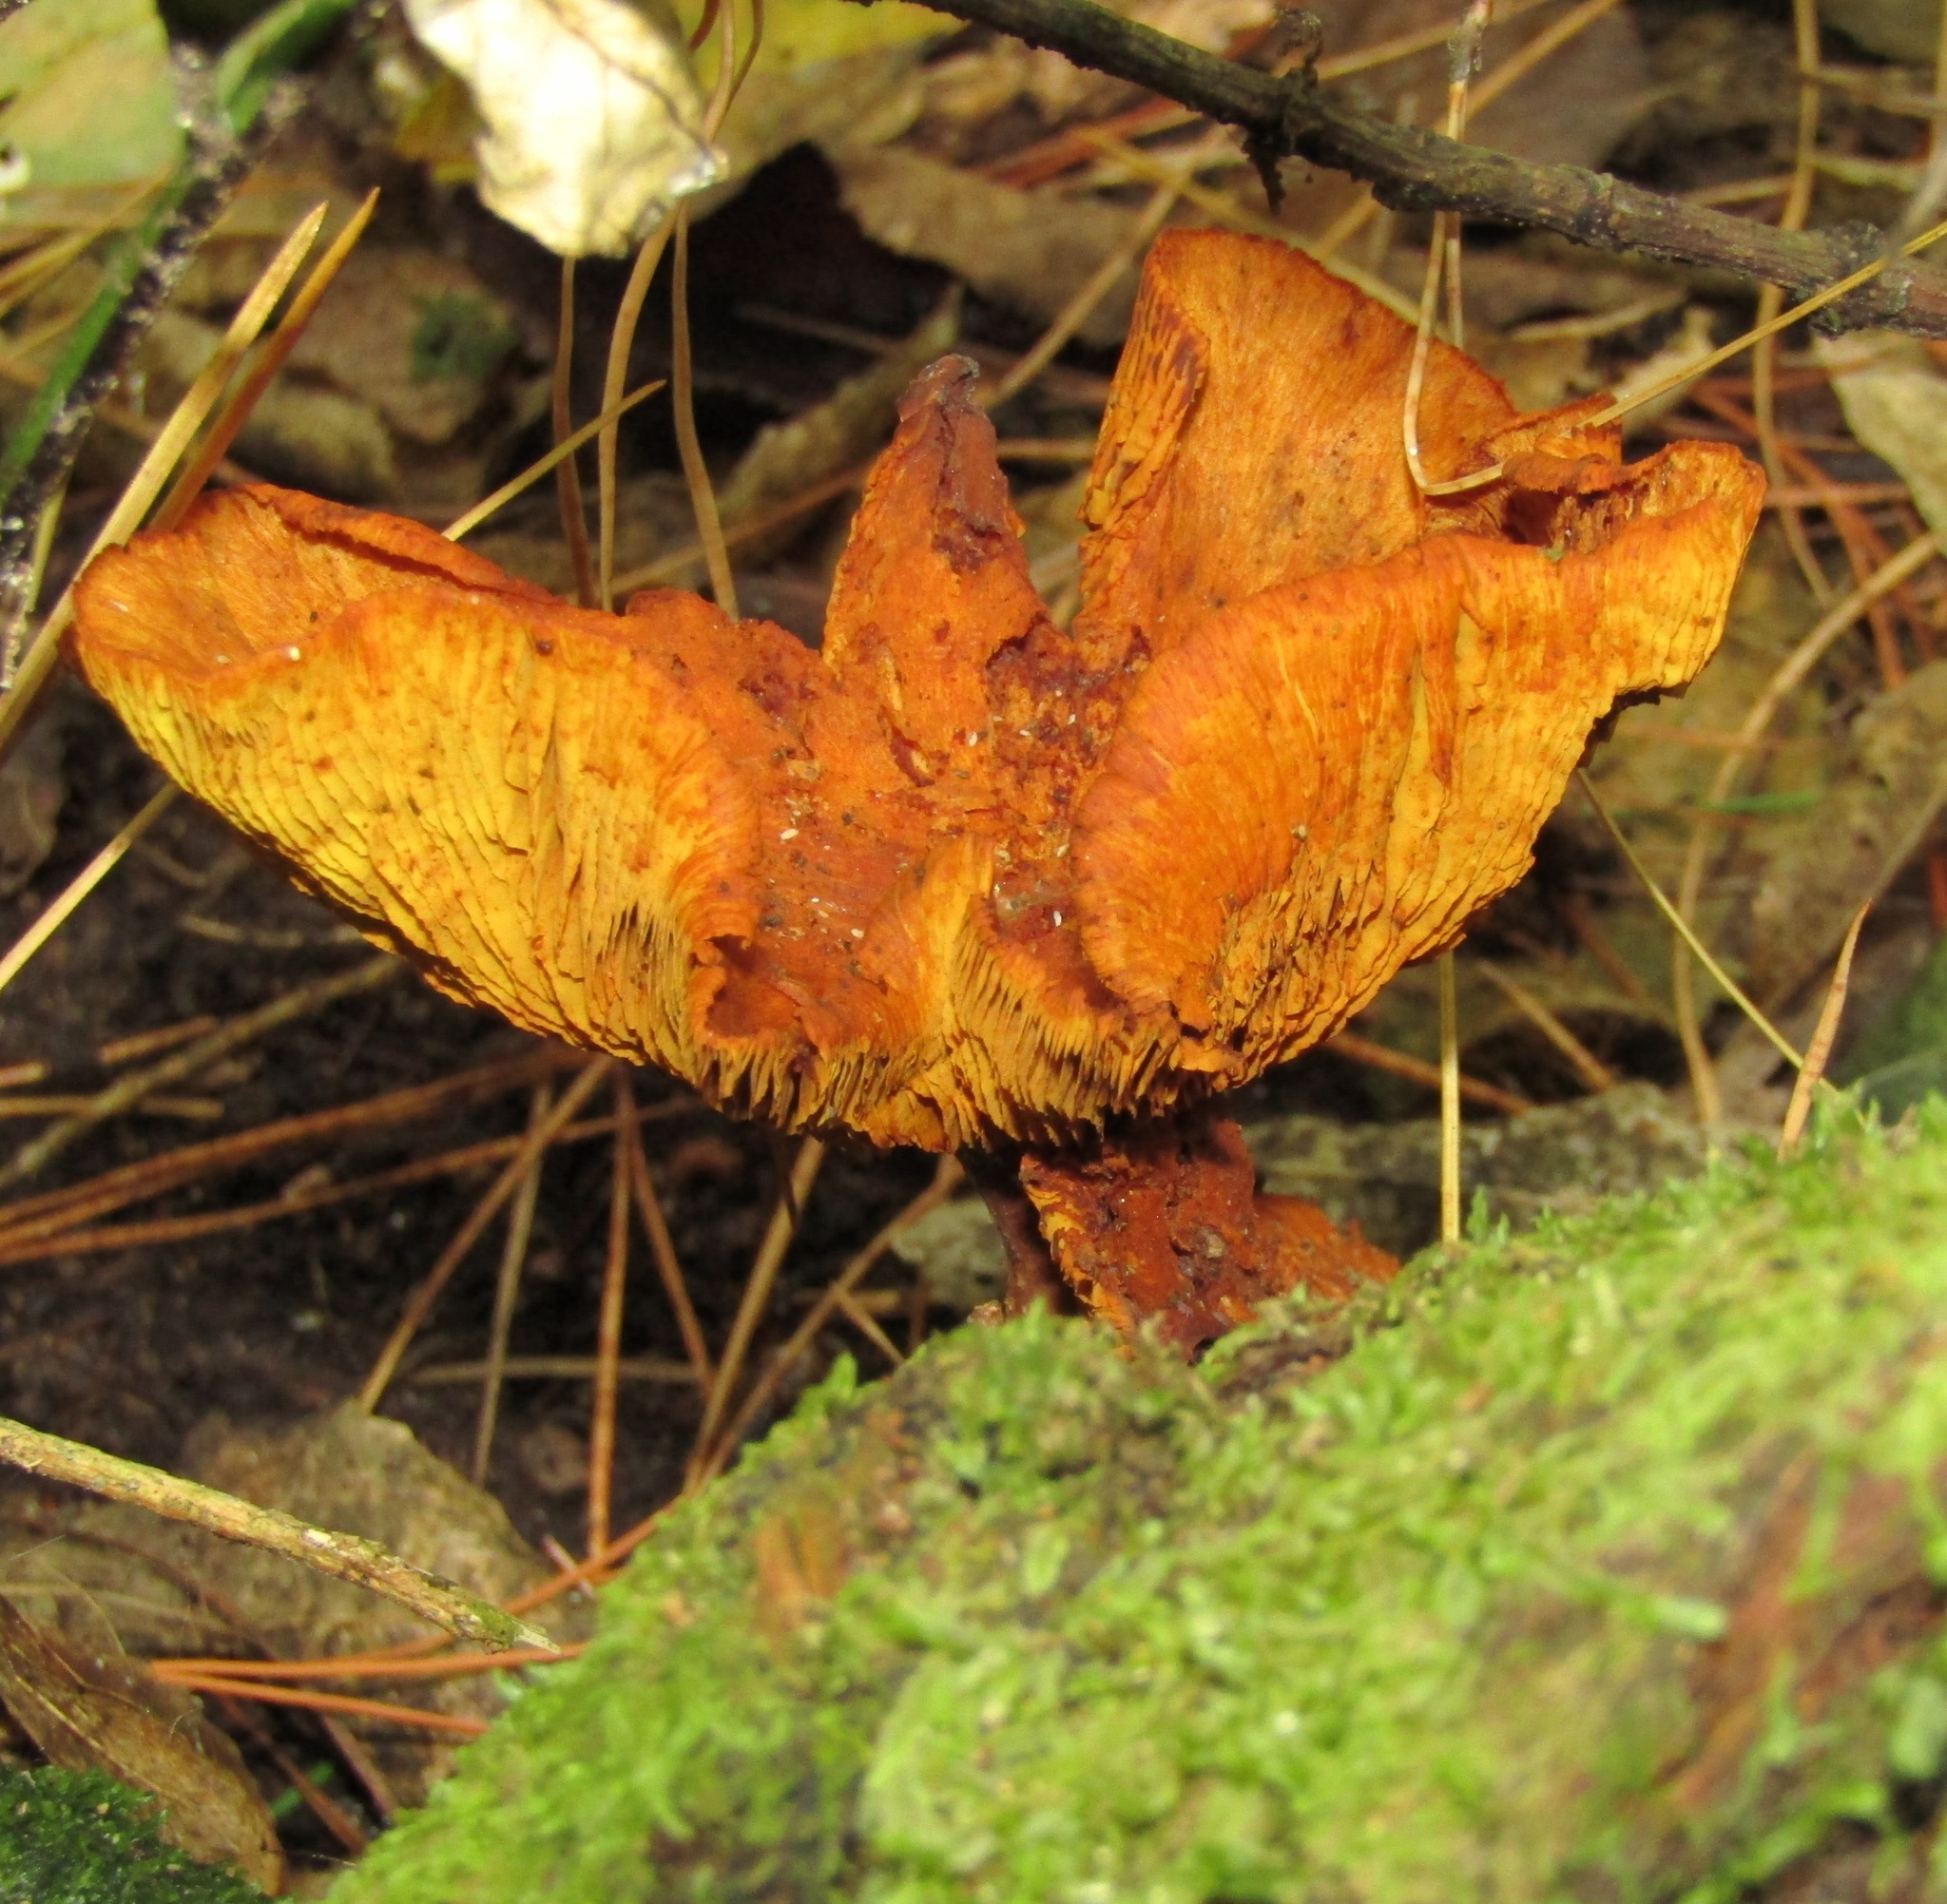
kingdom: Fungi
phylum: Basidiomycota
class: Agaricomycetes
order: Agaricales
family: Mycenaceae
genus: Heimiomyces
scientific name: Heimiomyces velutipes
